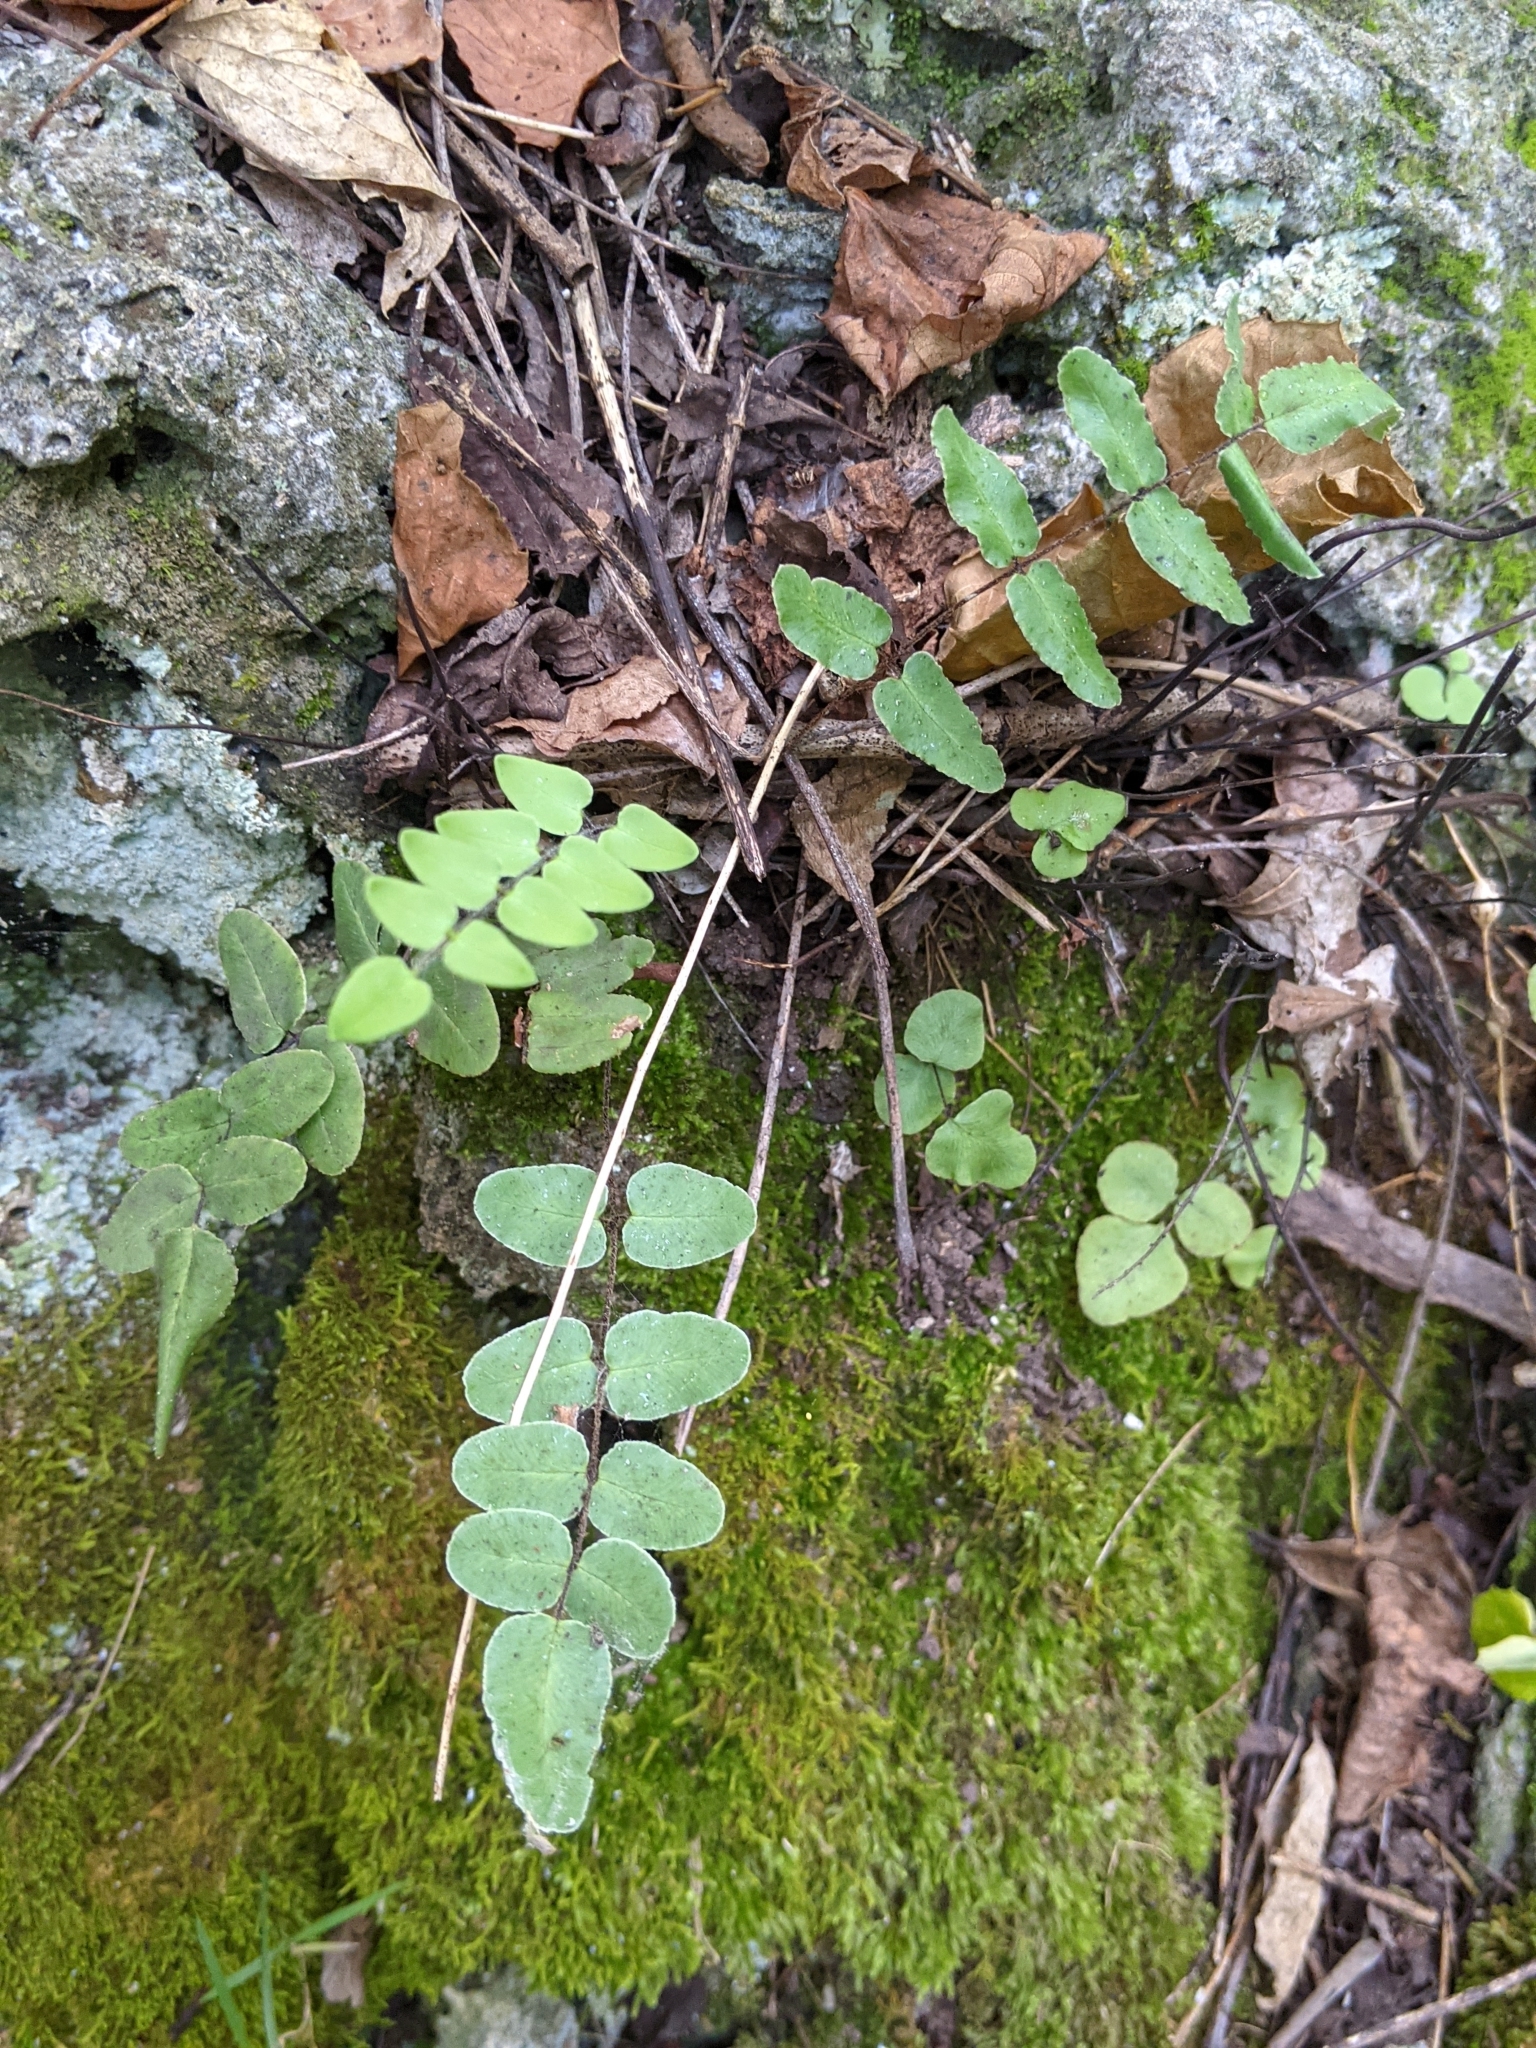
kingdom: Plantae
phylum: Tracheophyta
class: Polypodiopsida
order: Polypodiales
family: Pteridaceae
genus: Pellaea
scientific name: Pellaea atropurpurea
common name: Hairy cliffbrake
